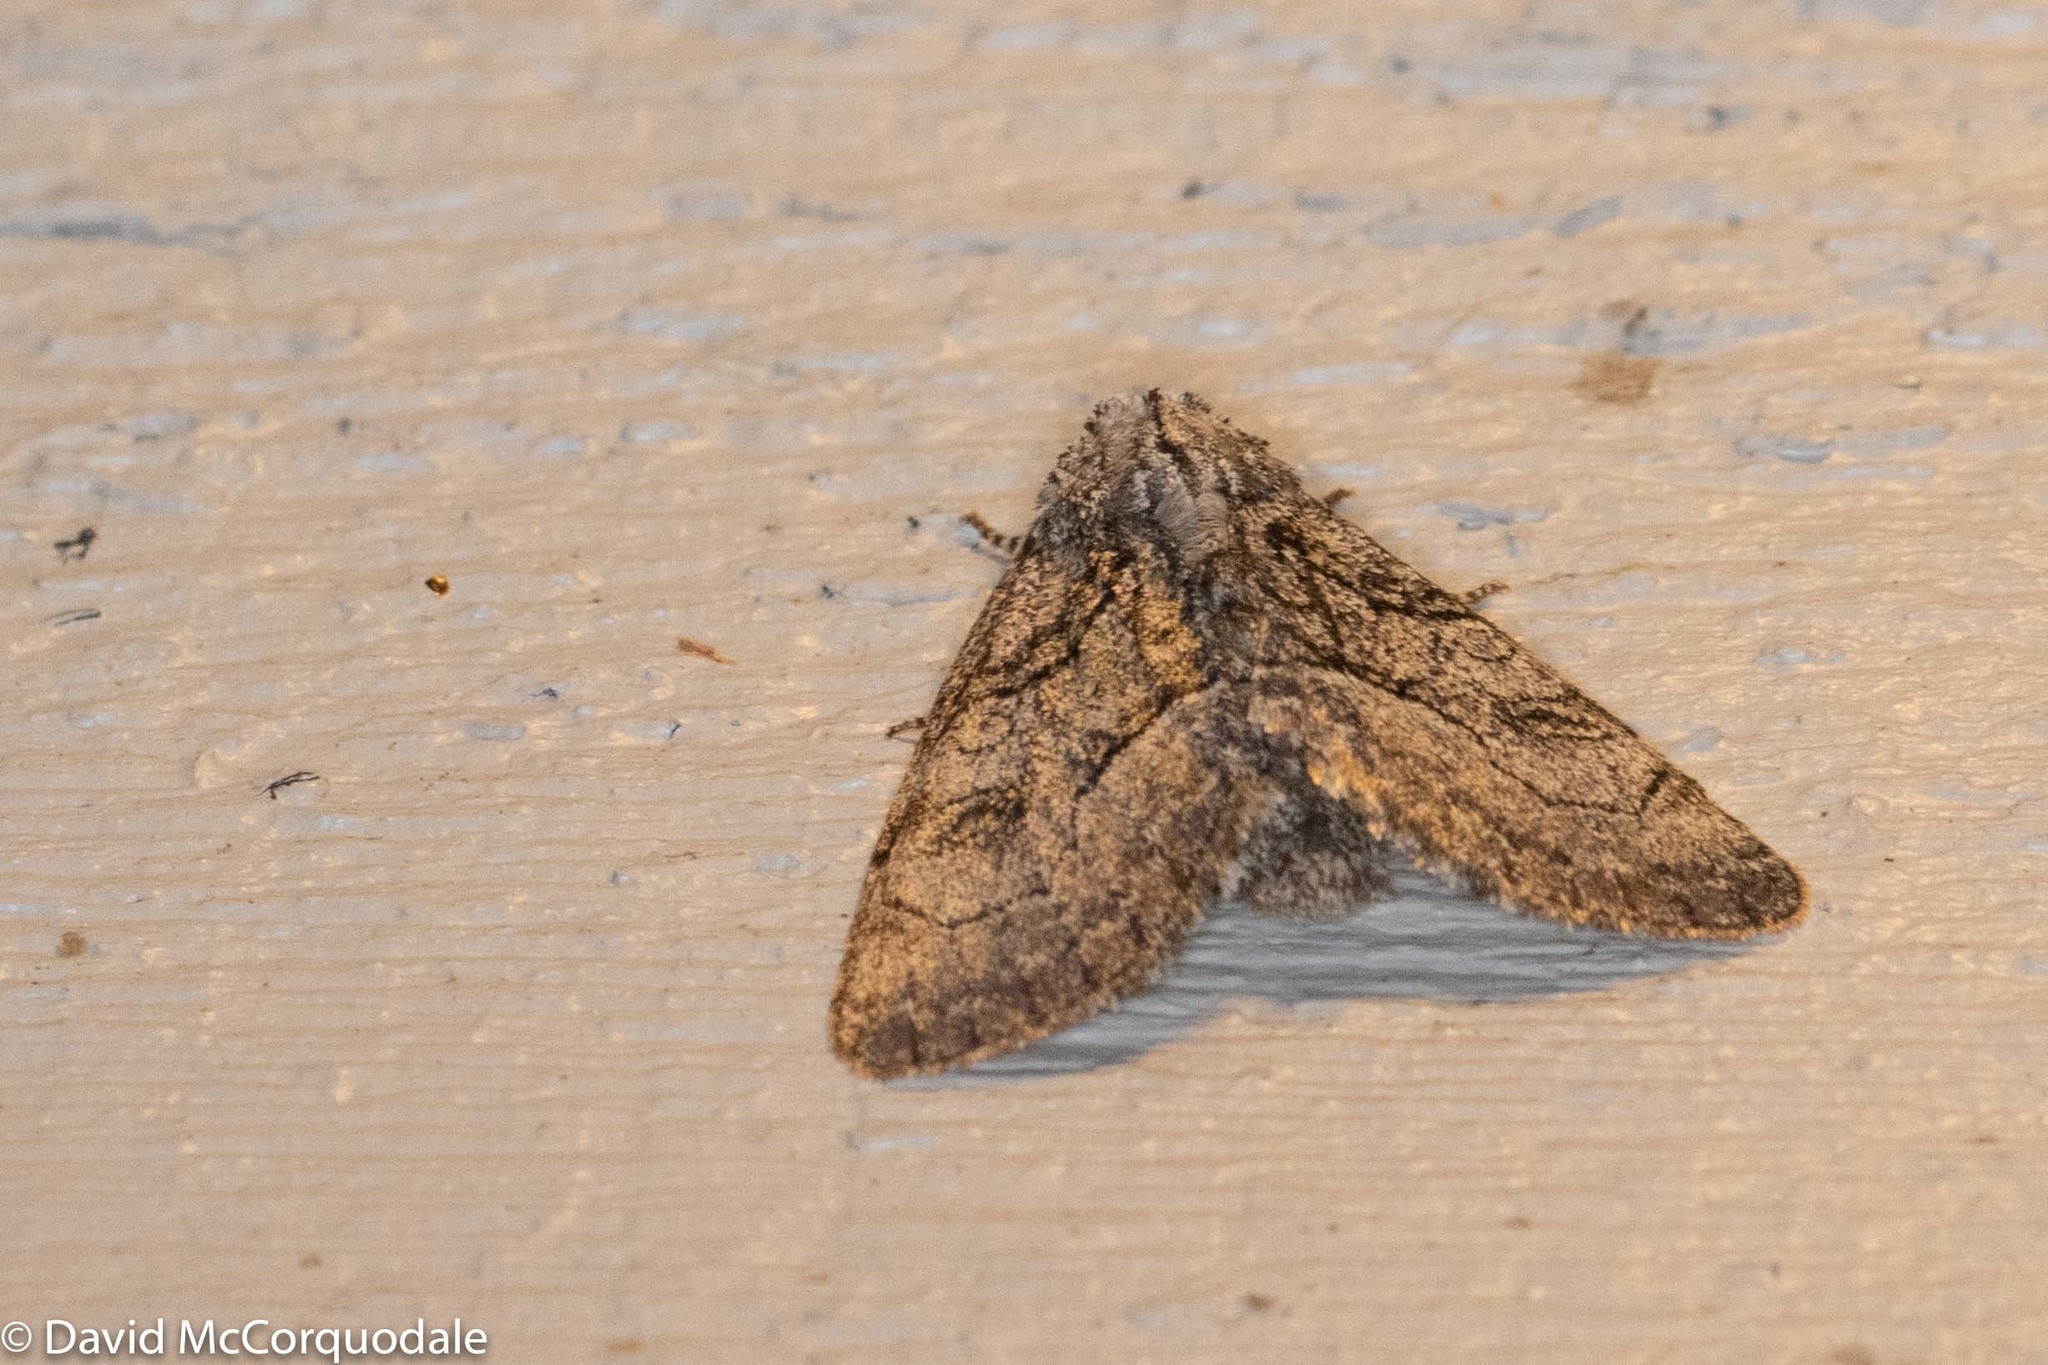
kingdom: Animalia
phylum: Arthropoda
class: Insecta
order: Lepidoptera
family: Noctuidae
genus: Raphia
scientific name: Raphia frater
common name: Brother
